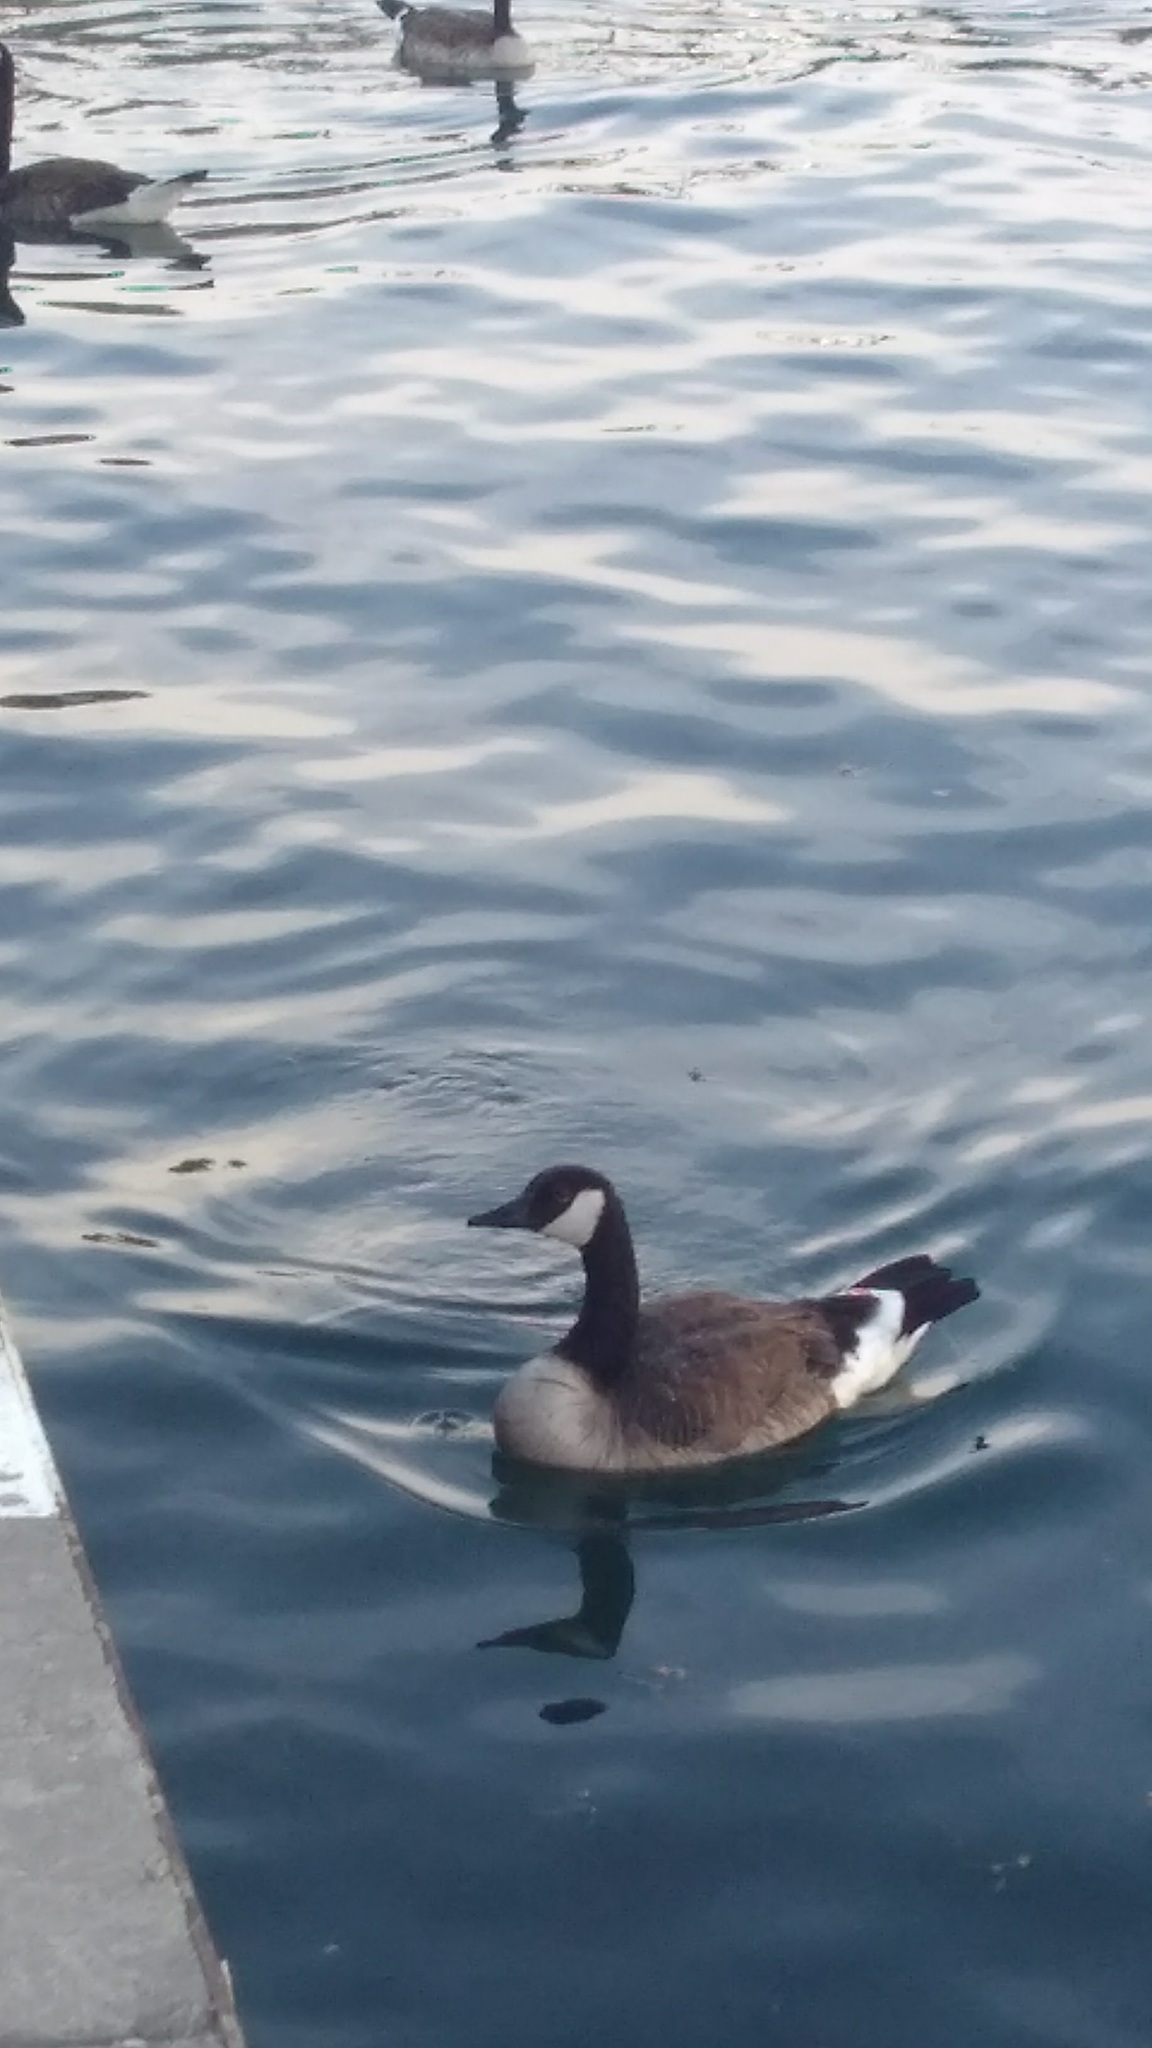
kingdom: Animalia
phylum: Chordata
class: Aves
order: Anseriformes
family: Anatidae
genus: Branta
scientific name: Branta canadensis
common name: Canada goose
